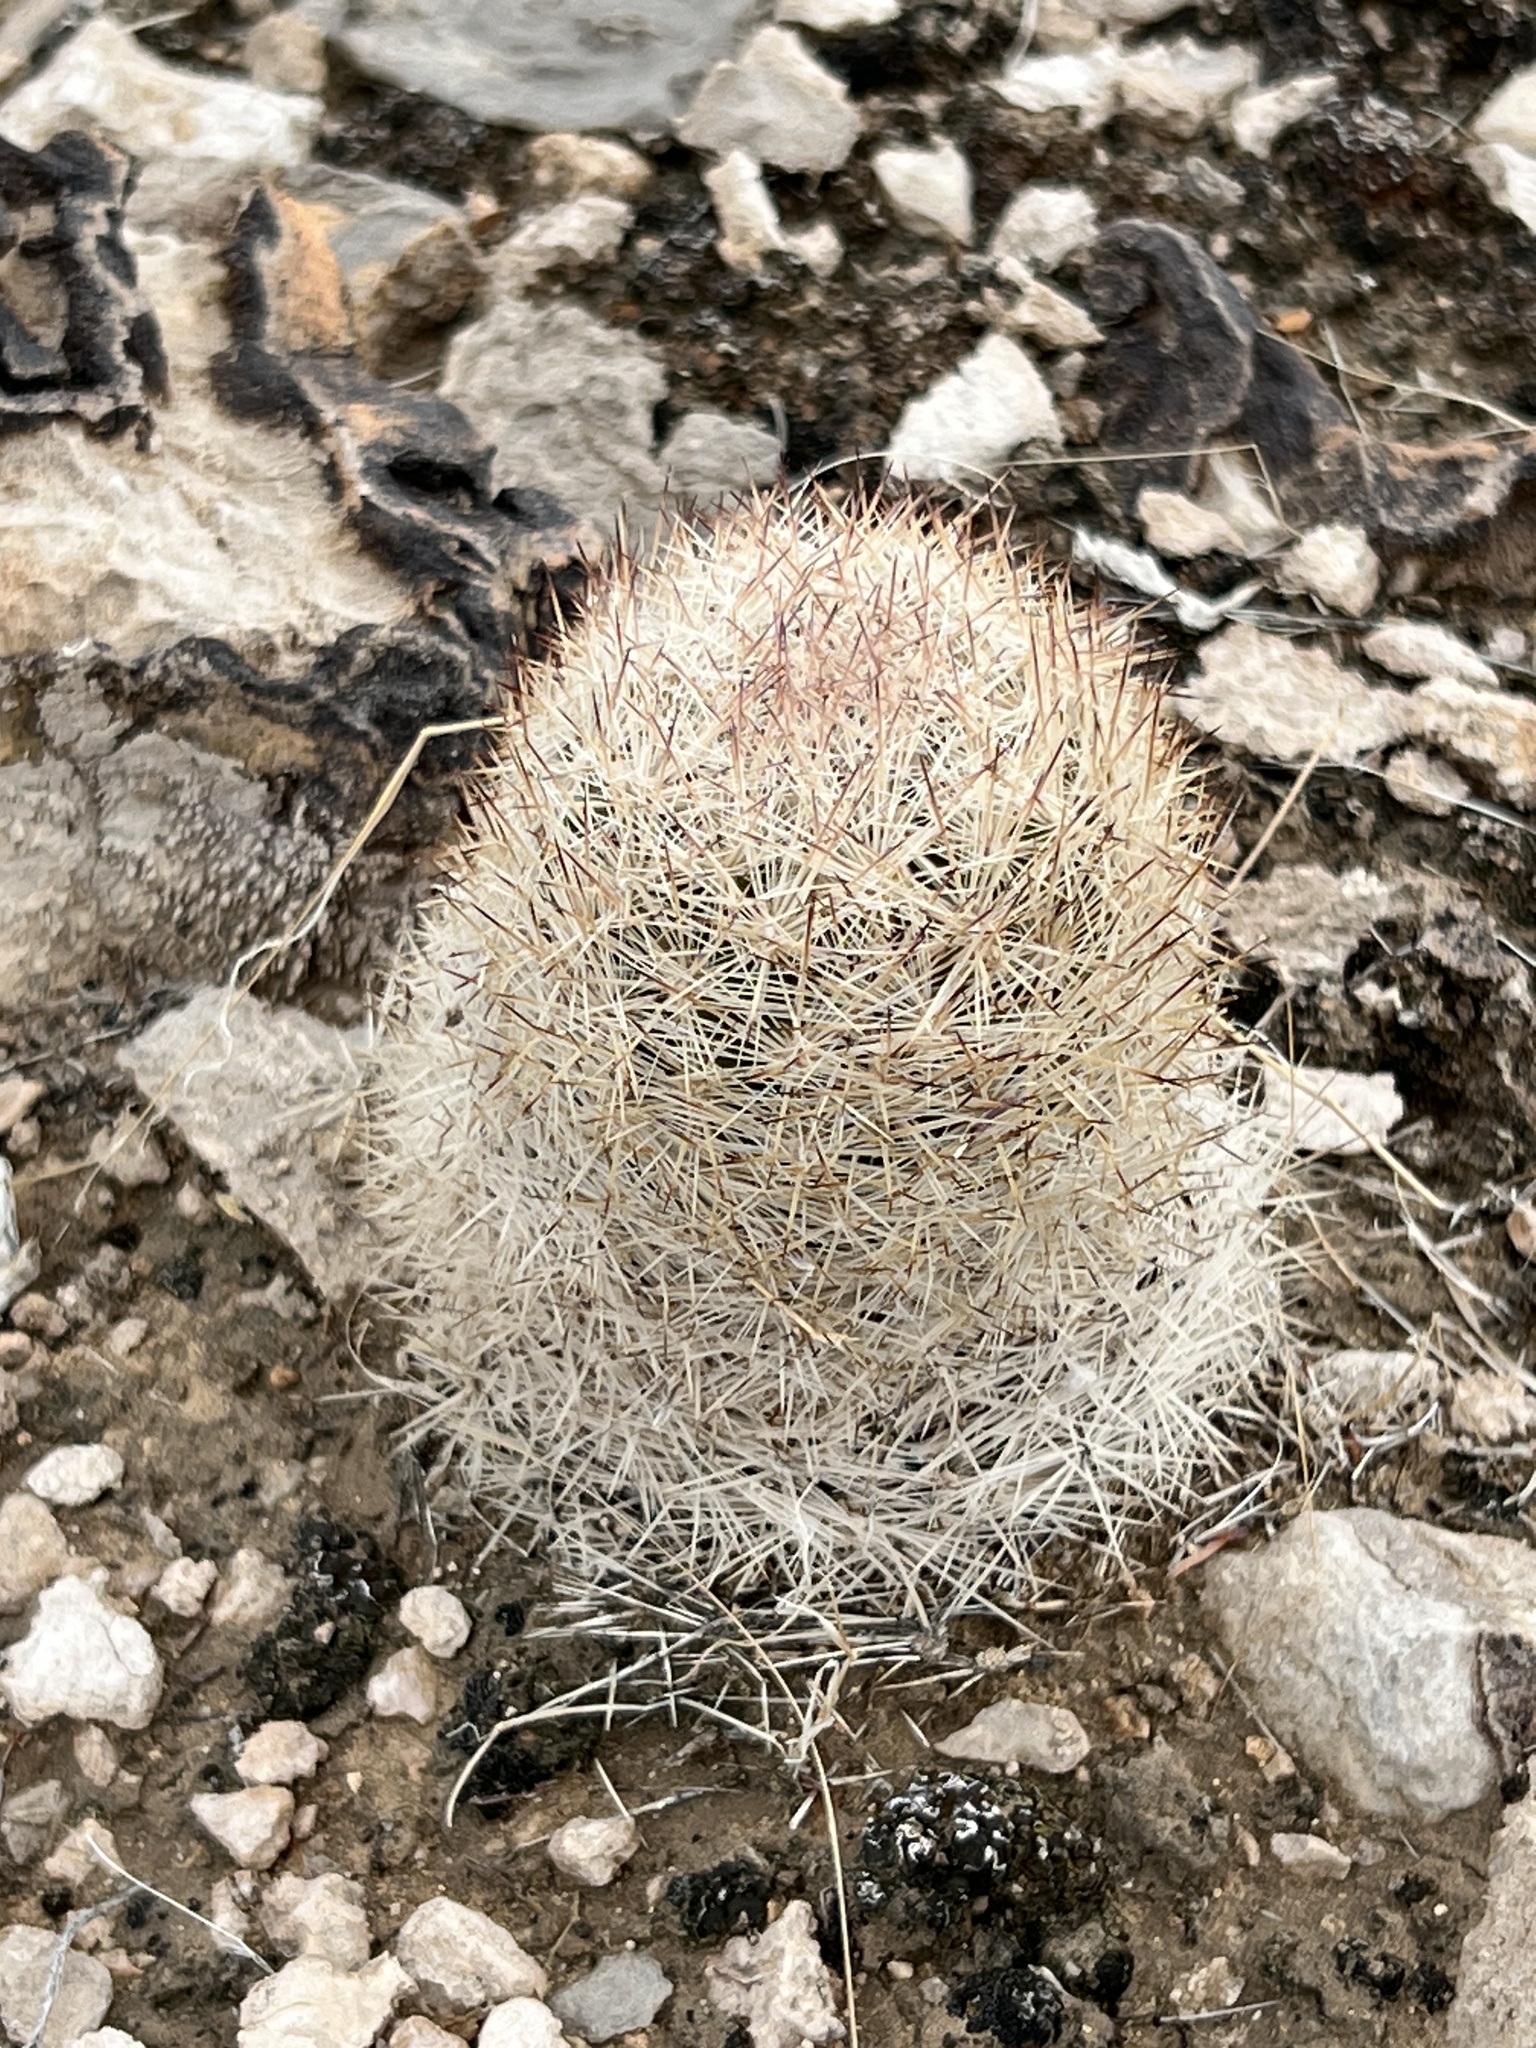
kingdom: Plantae
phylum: Tracheophyta
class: Magnoliopsida
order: Caryophyllales
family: Cactaceae
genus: Pelecyphora
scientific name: Pelecyphora dasyacantha
